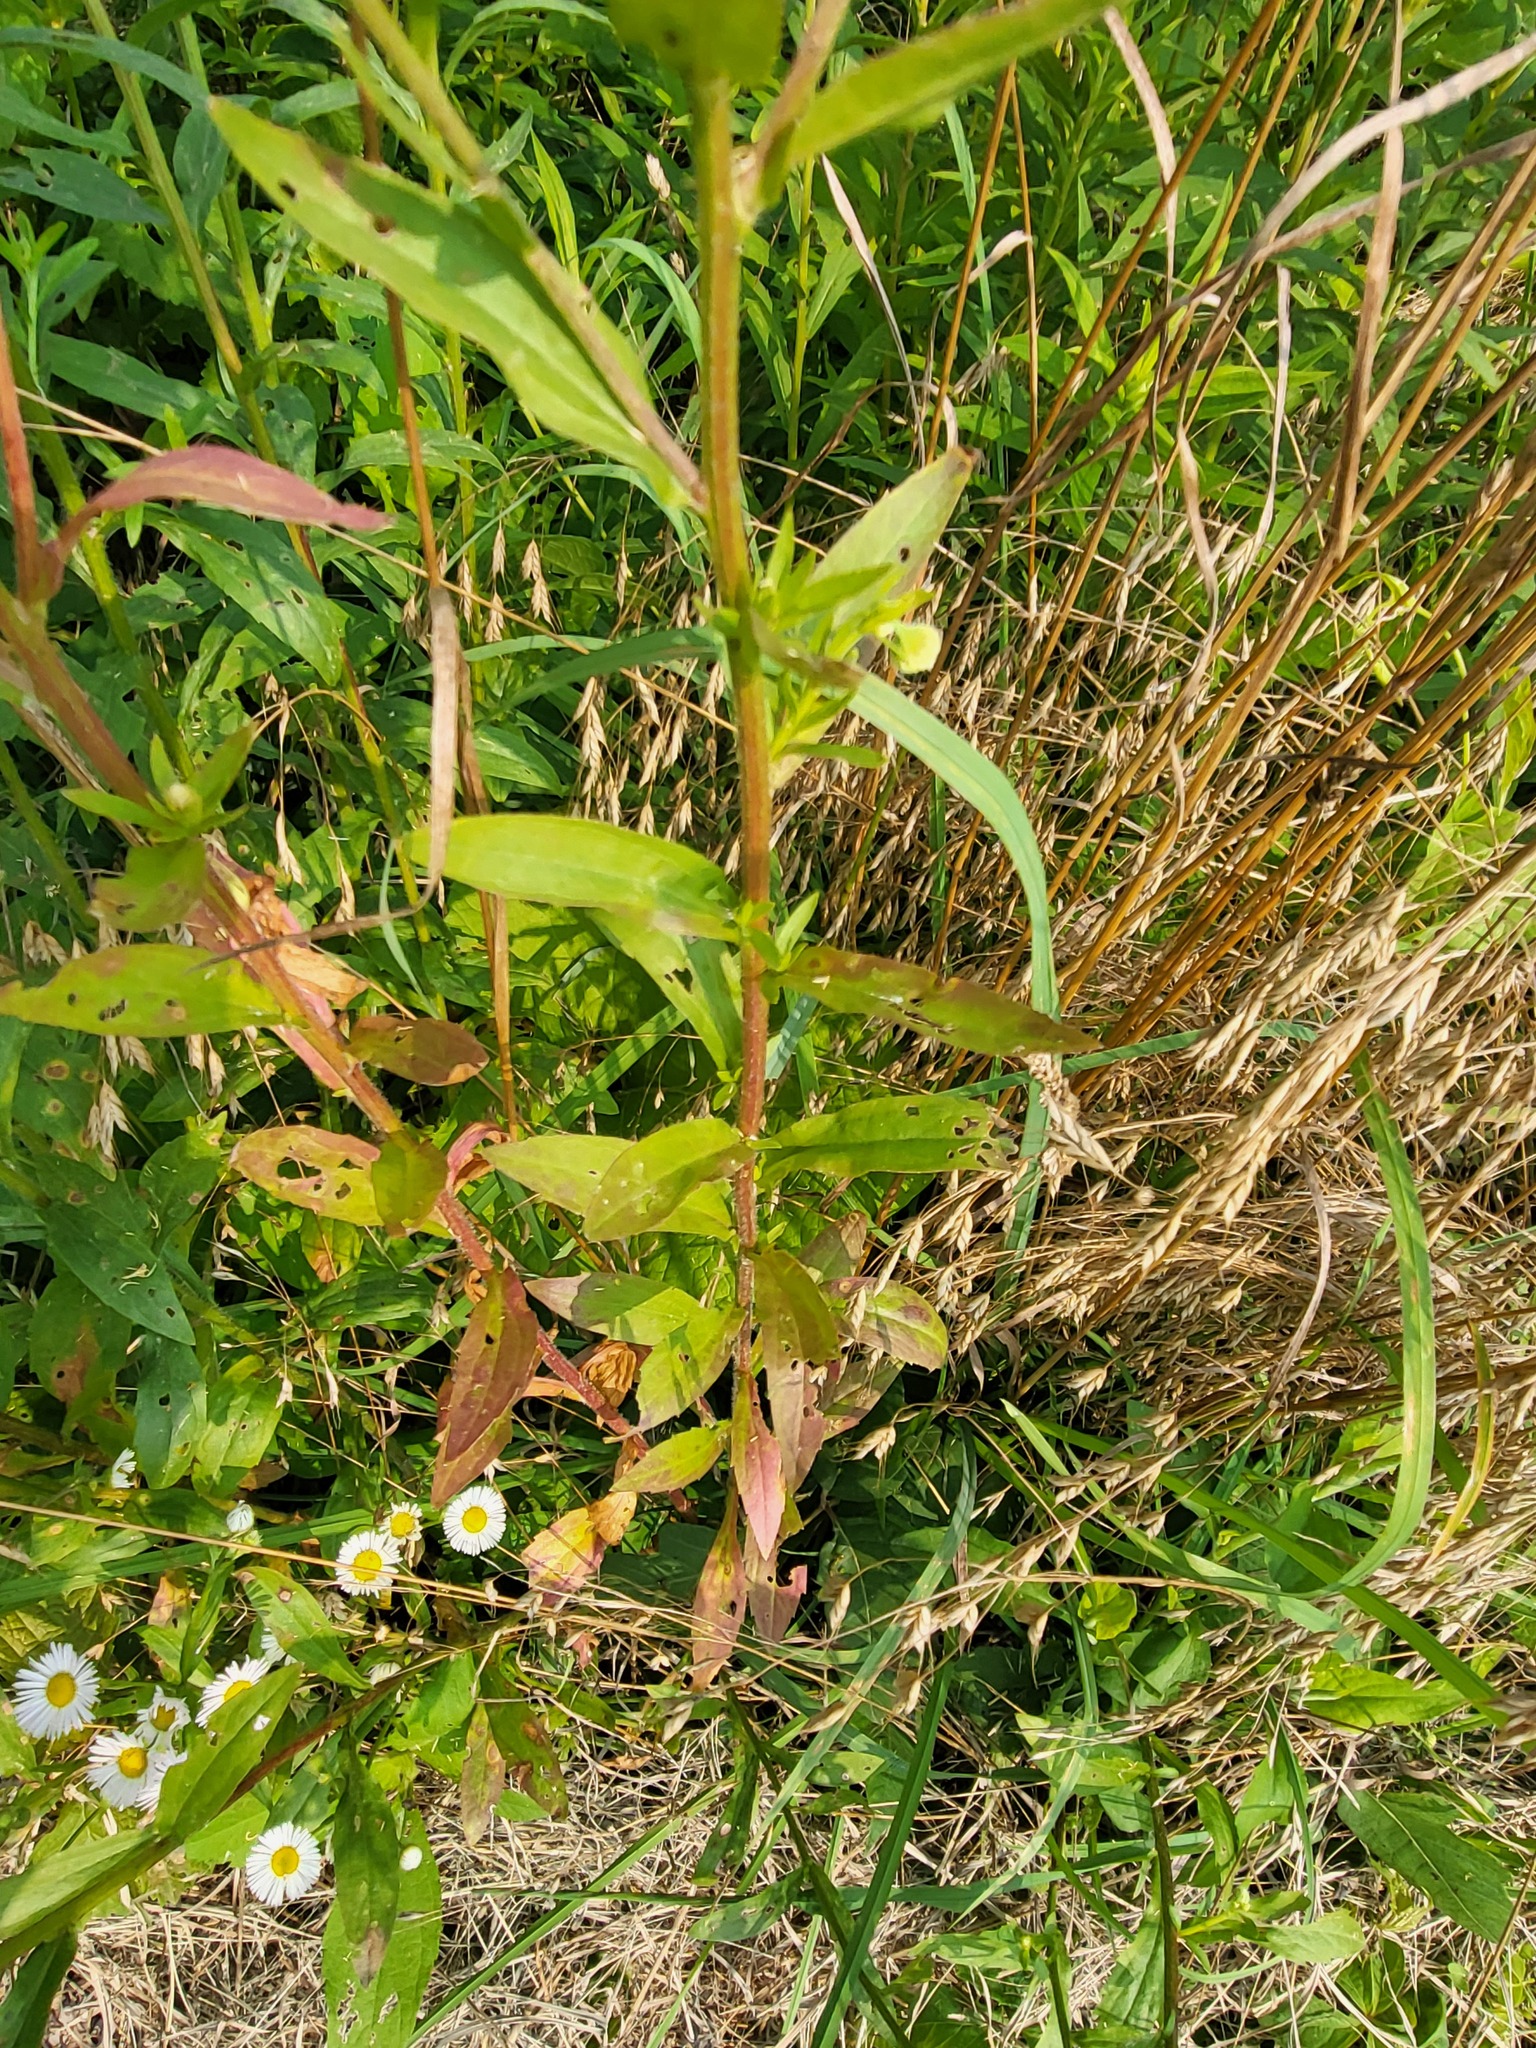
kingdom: Plantae
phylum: Tracheophyta
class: Magnoliopsida
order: Asterales
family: Asteraceae
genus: Erigeron
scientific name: Erigeron annuus
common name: Tall fleabane
